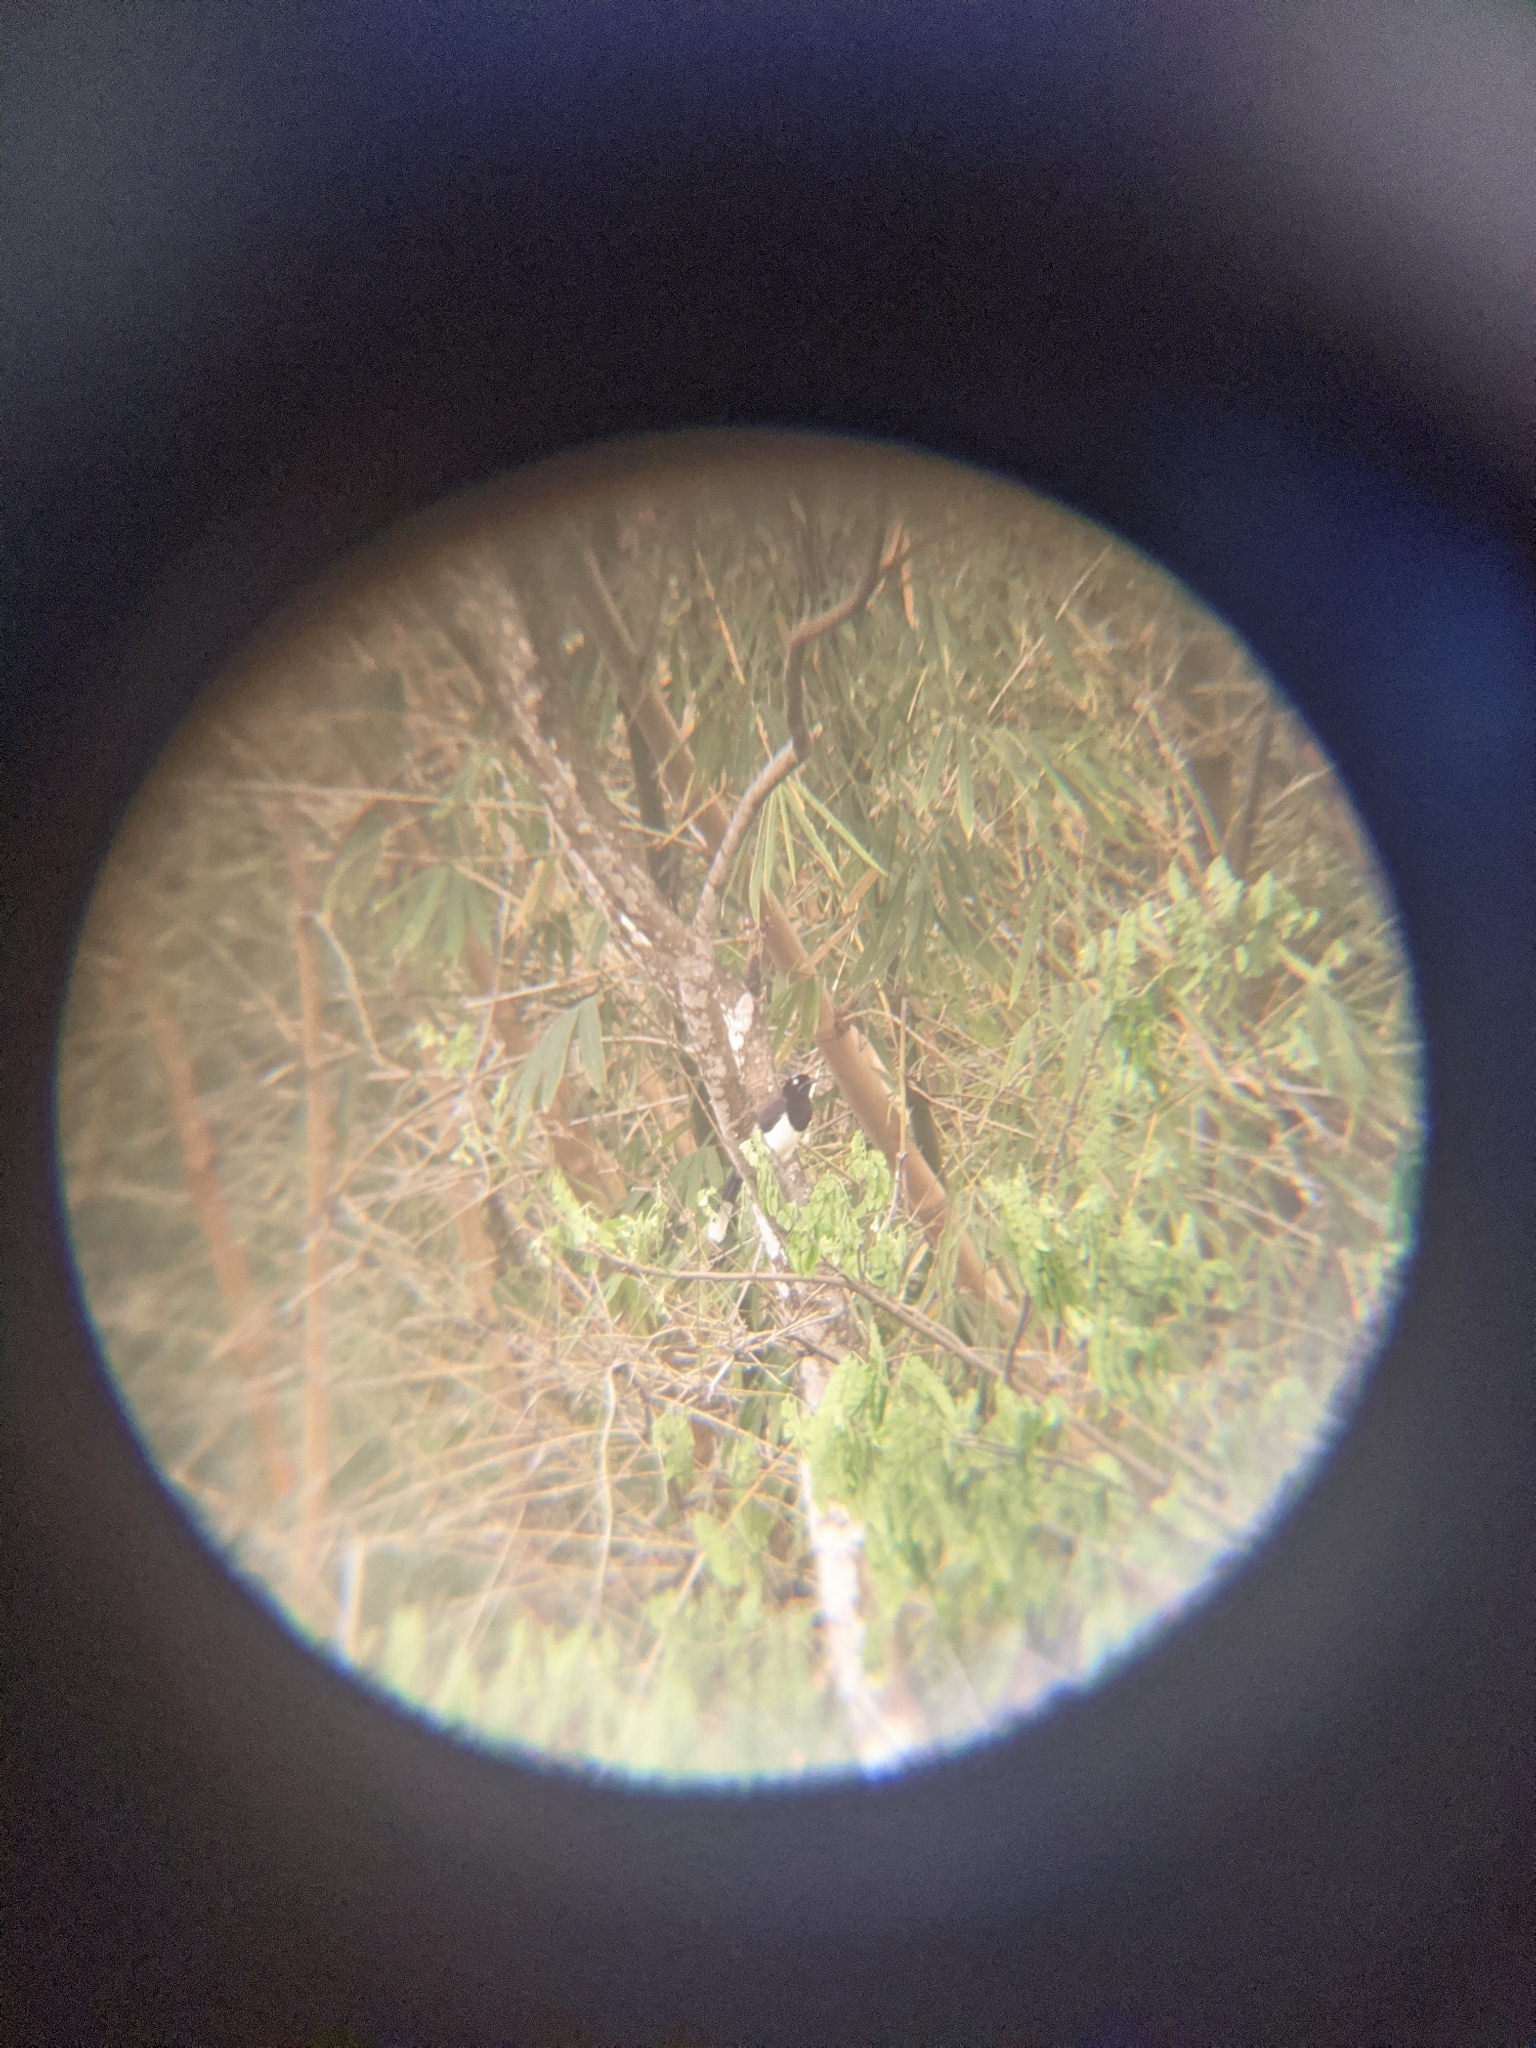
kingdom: Animalia
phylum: Chordata
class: Aves
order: Passeriformes
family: Corvidae
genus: Cyanocorax
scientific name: Cyanocorax affinis
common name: Black-chested jay
